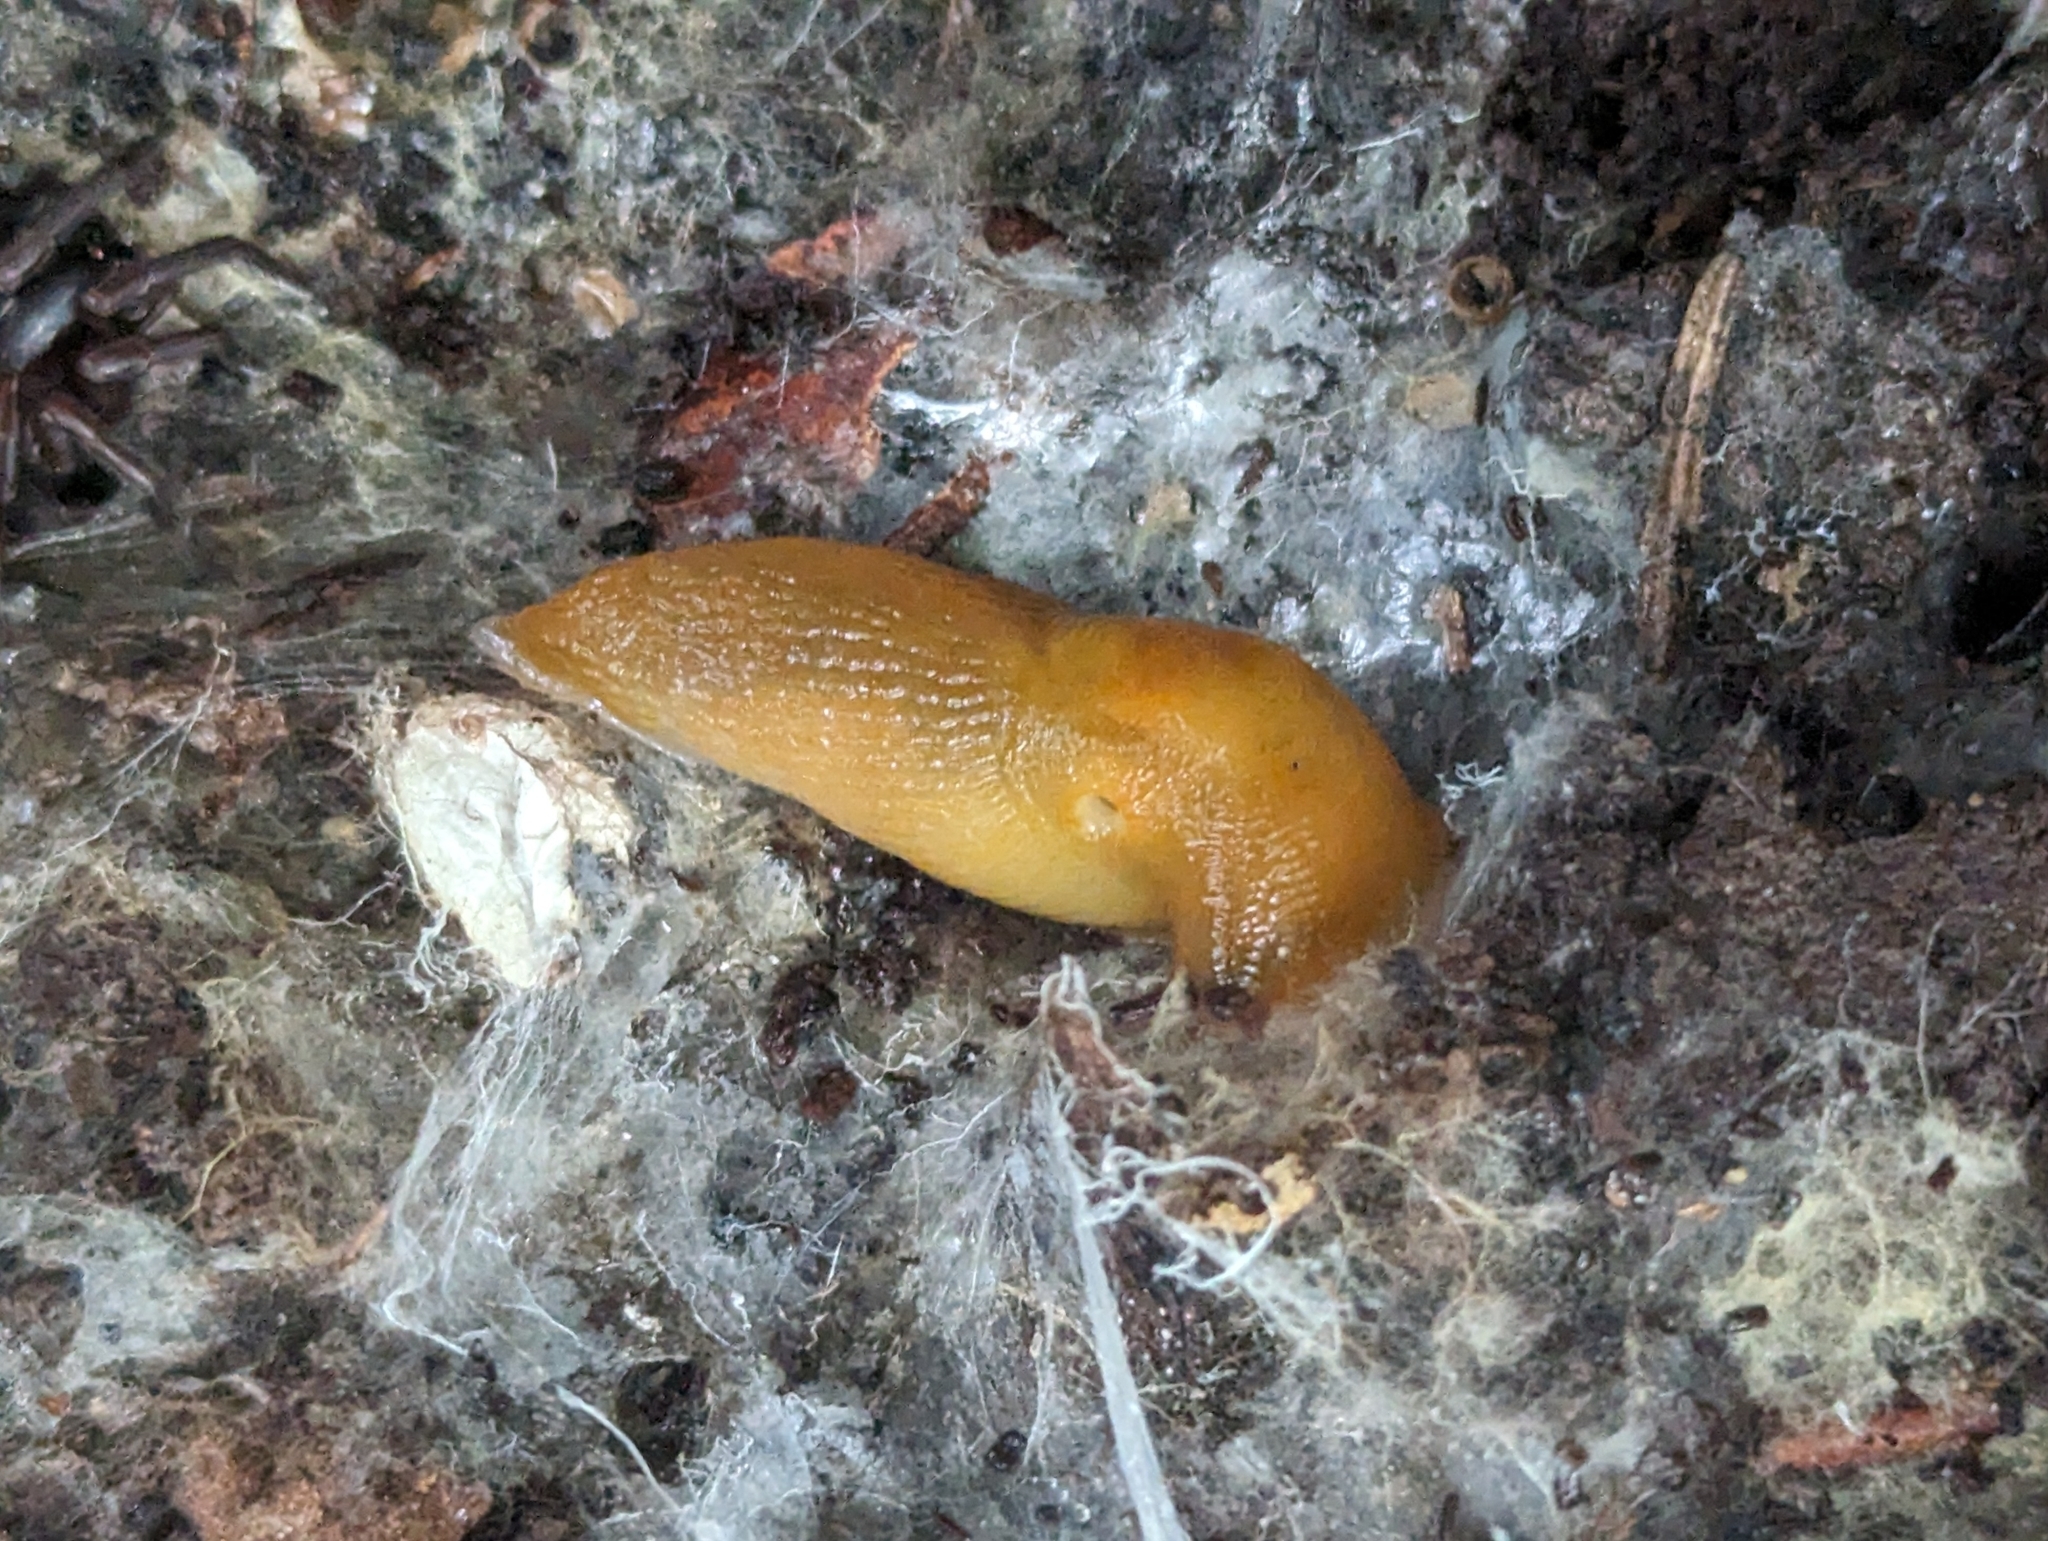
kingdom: Animalia
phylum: Mollusca
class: Gastropoda
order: Stylommatophora
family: Limacidae
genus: Malacolimax
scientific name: Malacolimax tenellus
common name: Lemon slug
